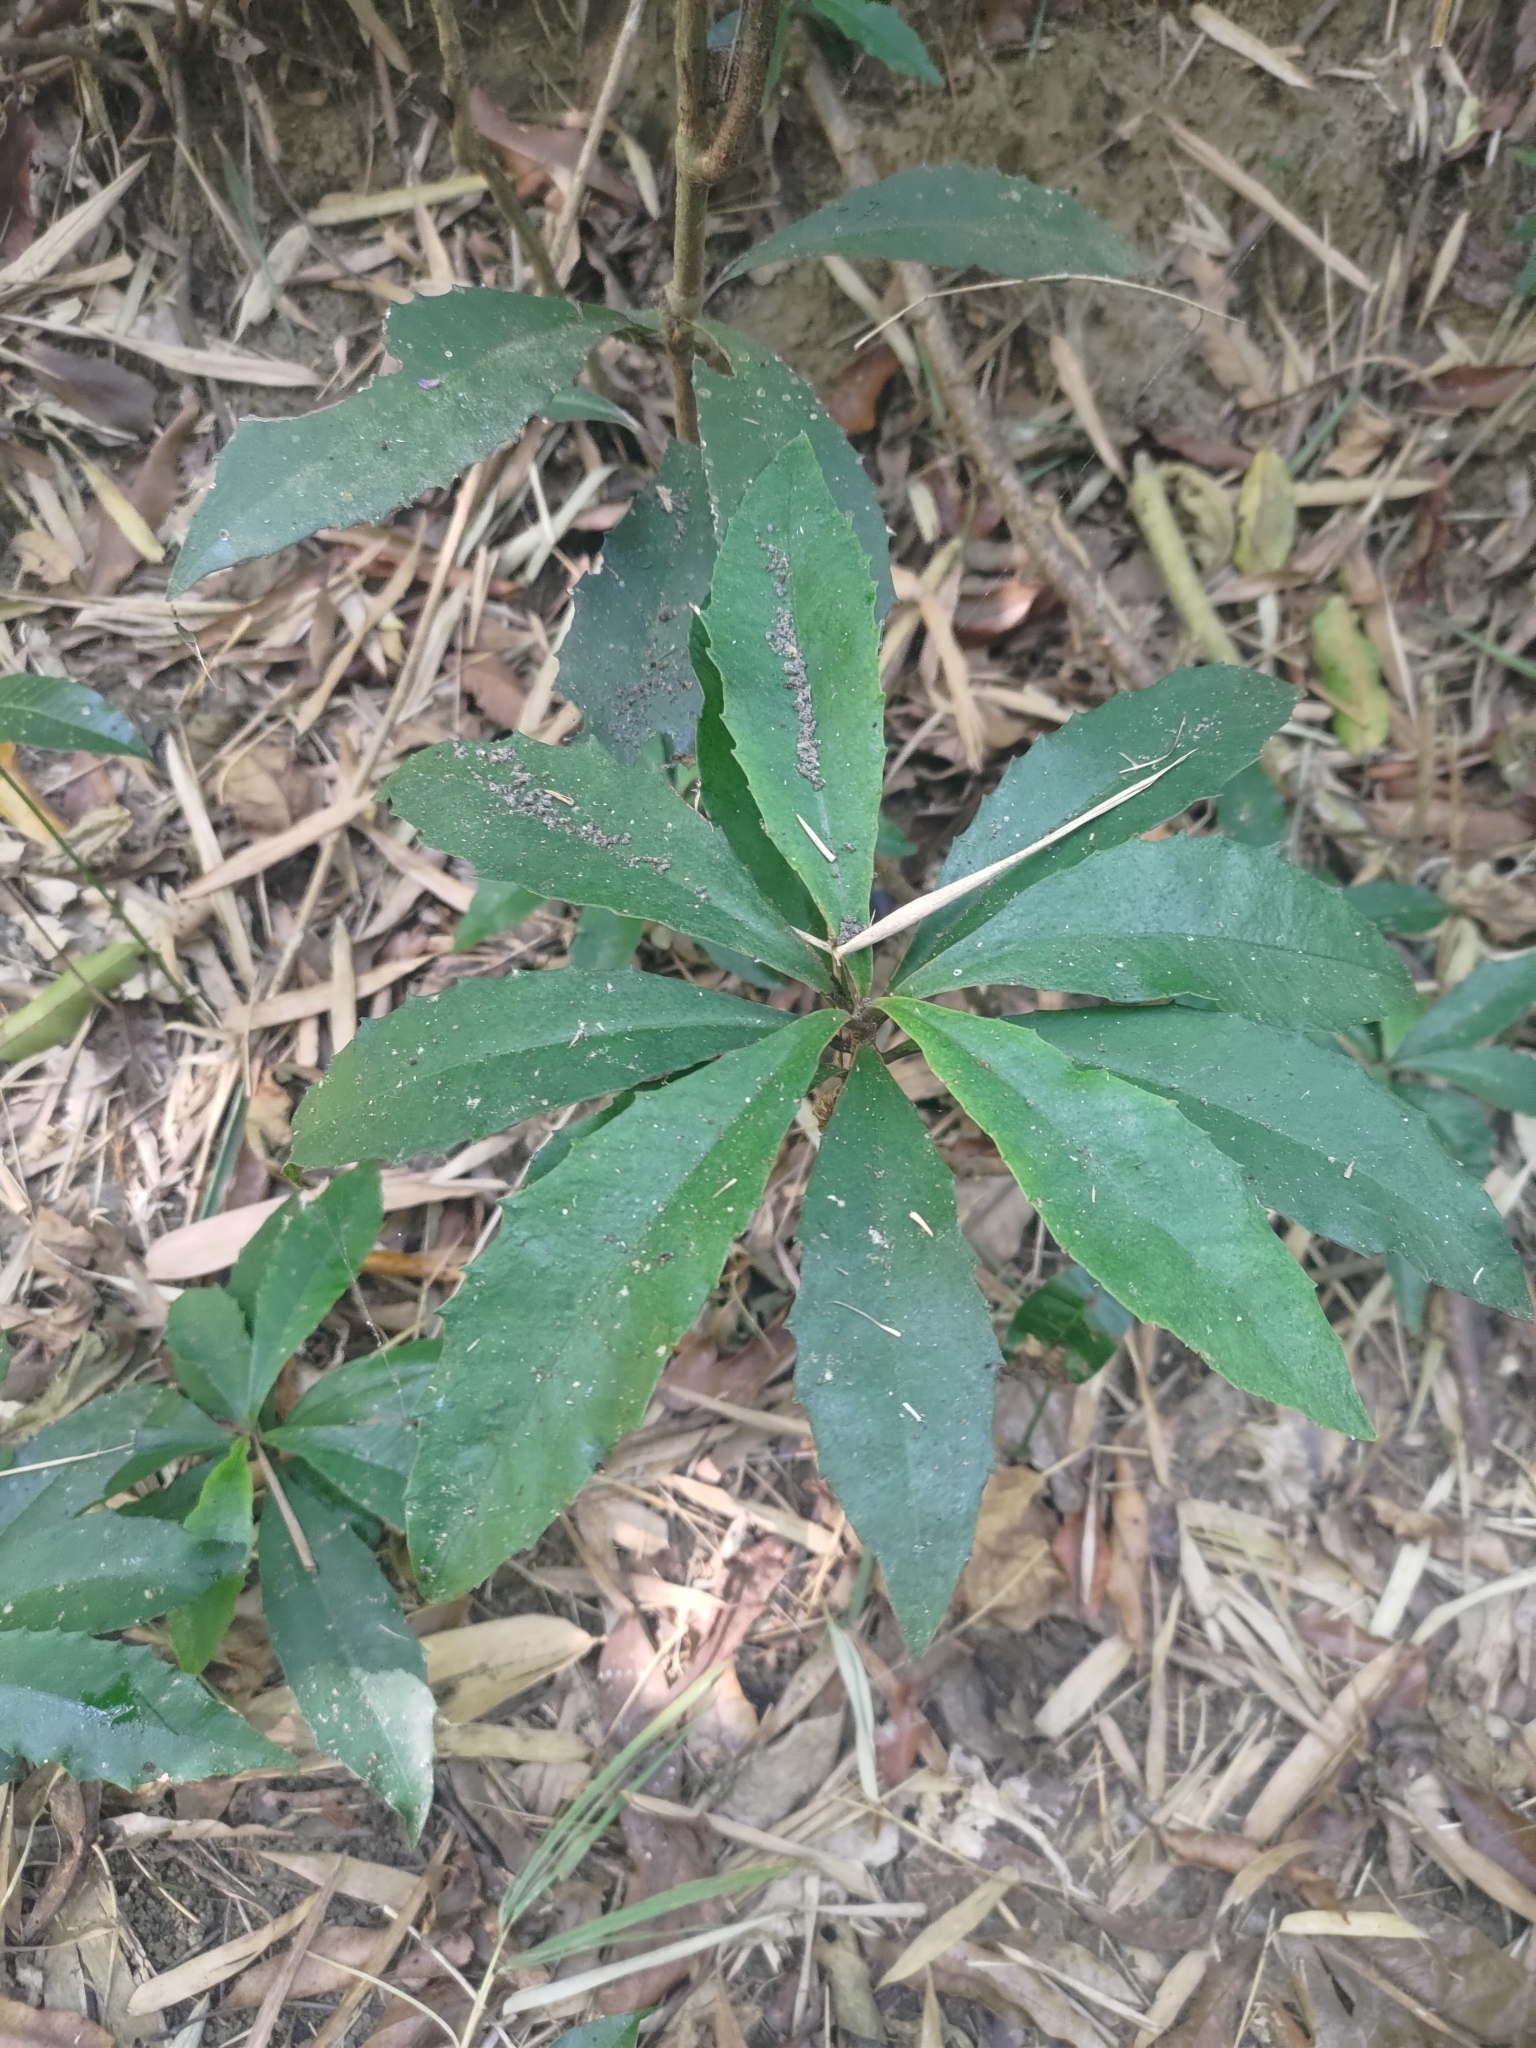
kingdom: Plantae
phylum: Tracheophyta
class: Magnoliopsida
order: Ericales
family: Primulaceae
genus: Ardisia
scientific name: Ardisia cornudentata
